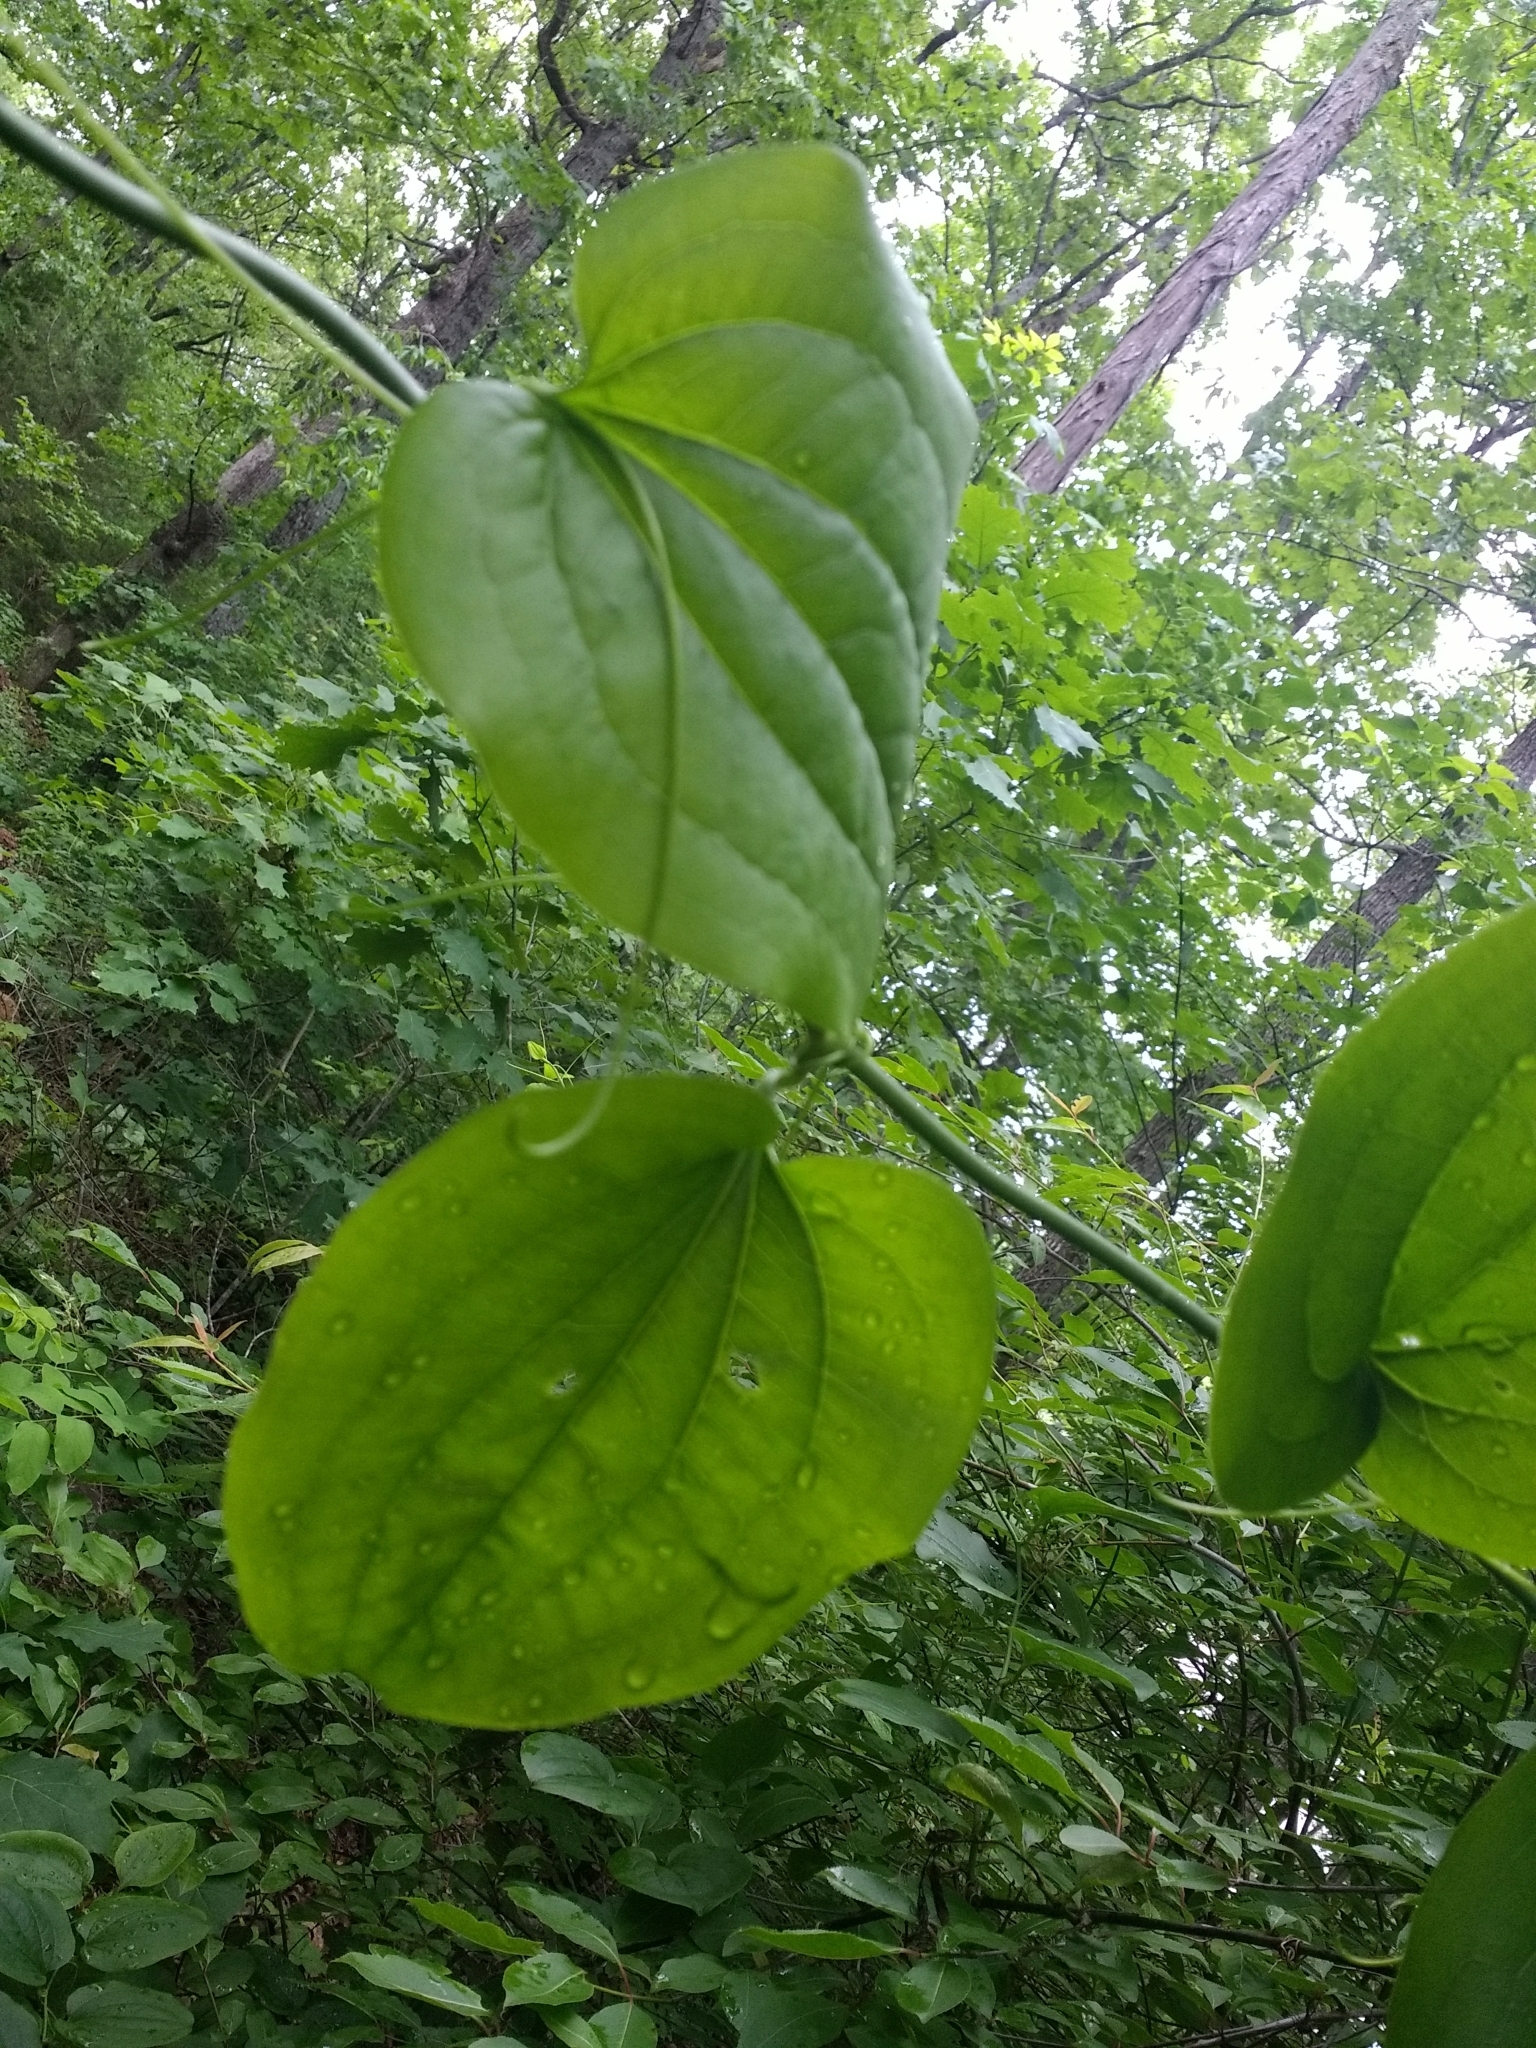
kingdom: Plantae
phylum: Tracheophyta
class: Liliopsida
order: Liliales
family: Smilacaceae
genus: Smilax
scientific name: Smilax rotundifolia
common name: Bullbriar
